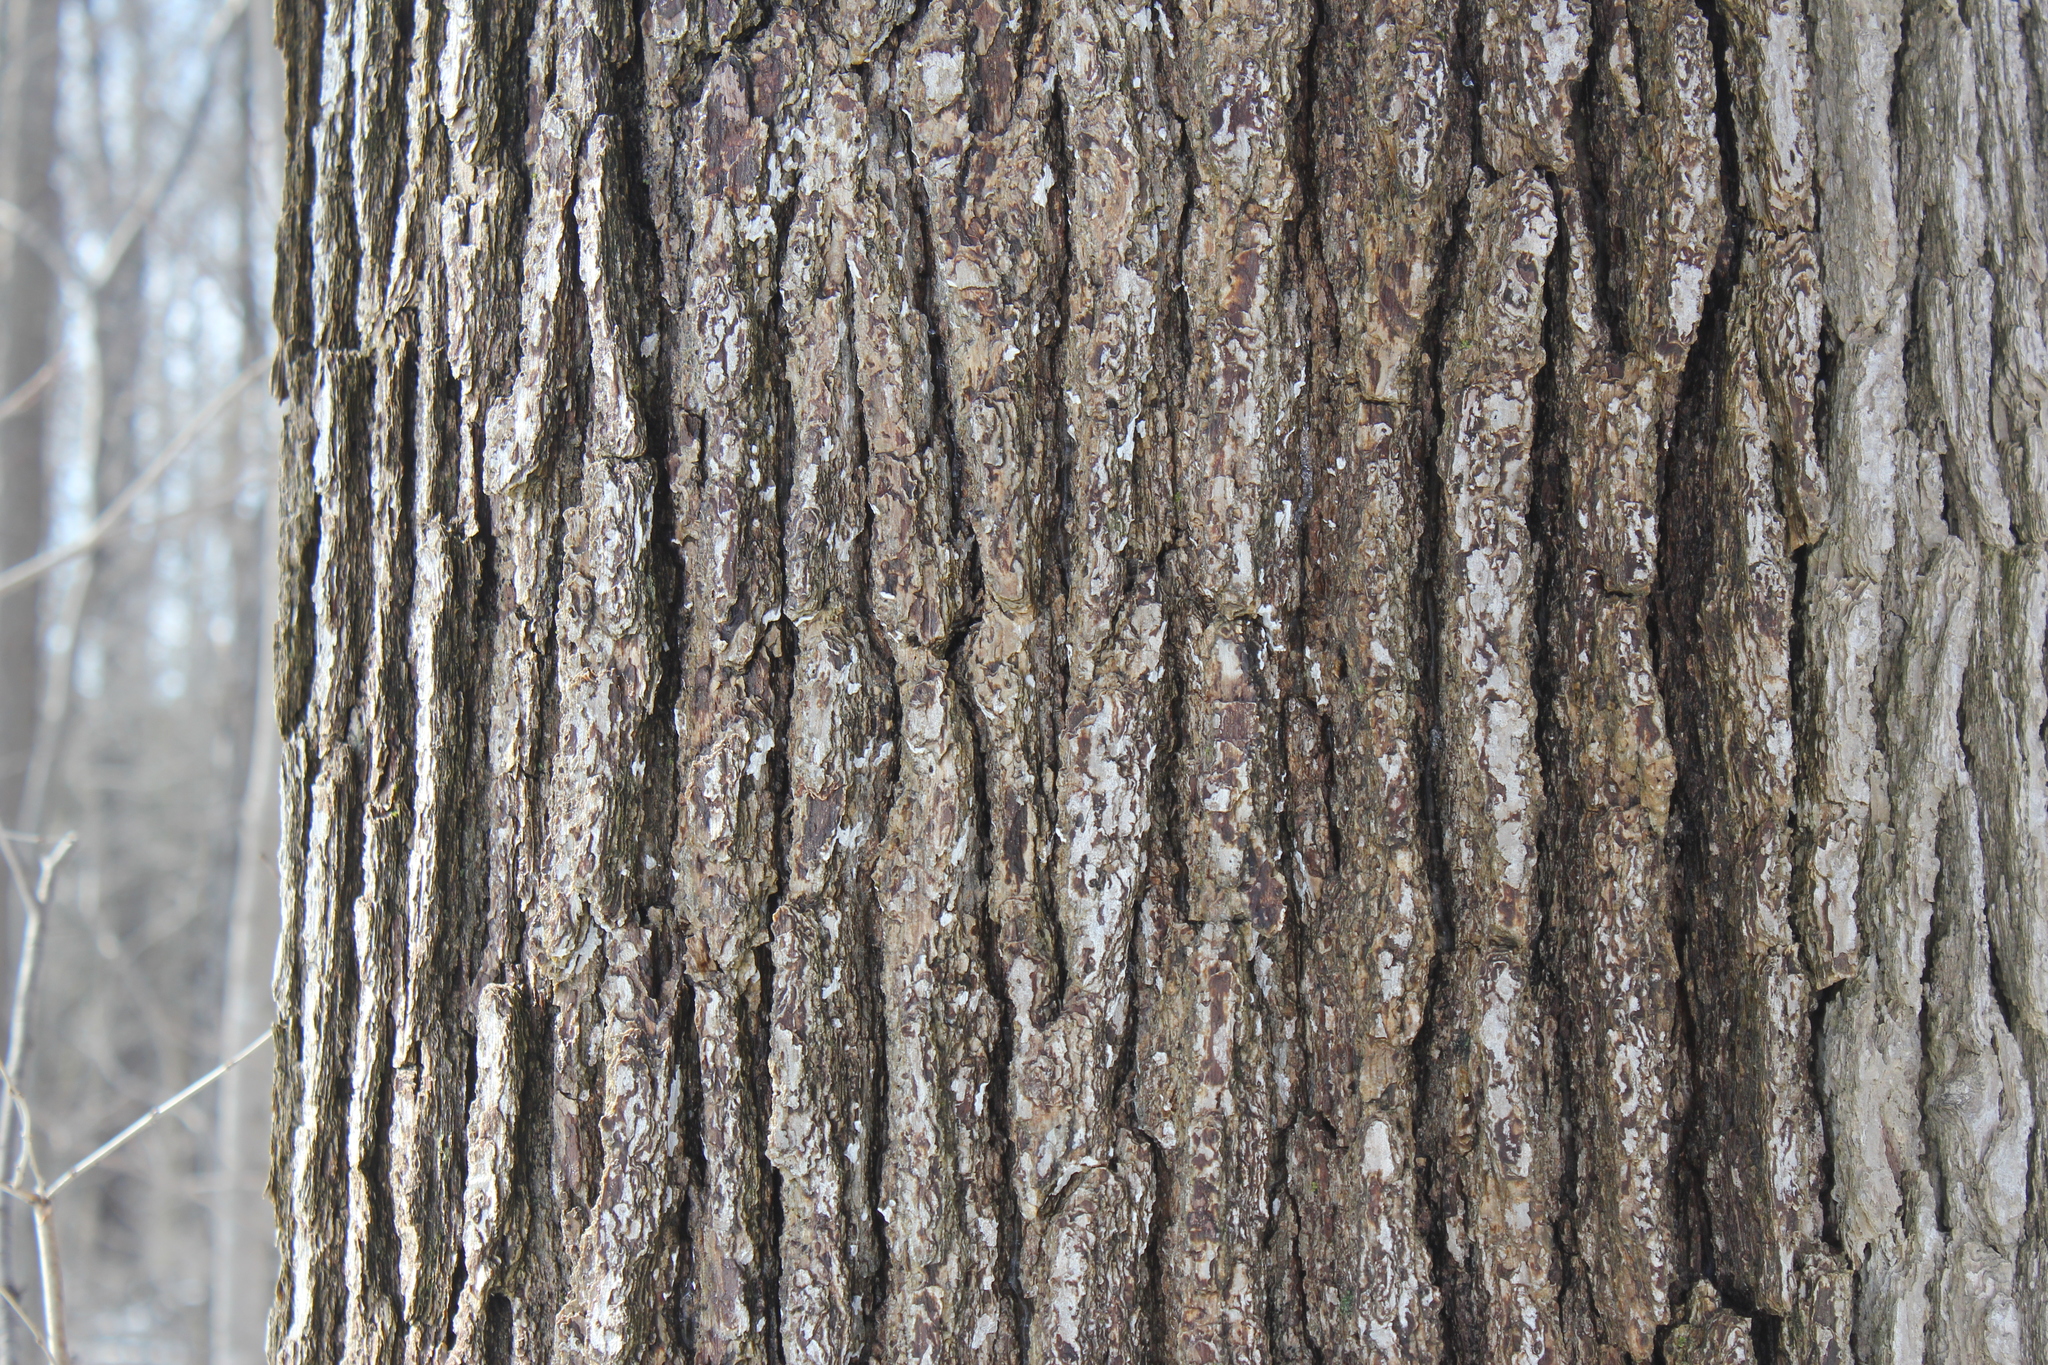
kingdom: Plantae
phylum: Tracheophyta
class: Magnoliopsida
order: Fagales
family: Fagaceae
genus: Quercus
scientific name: Quercus macrocarpa
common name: Bur oak
